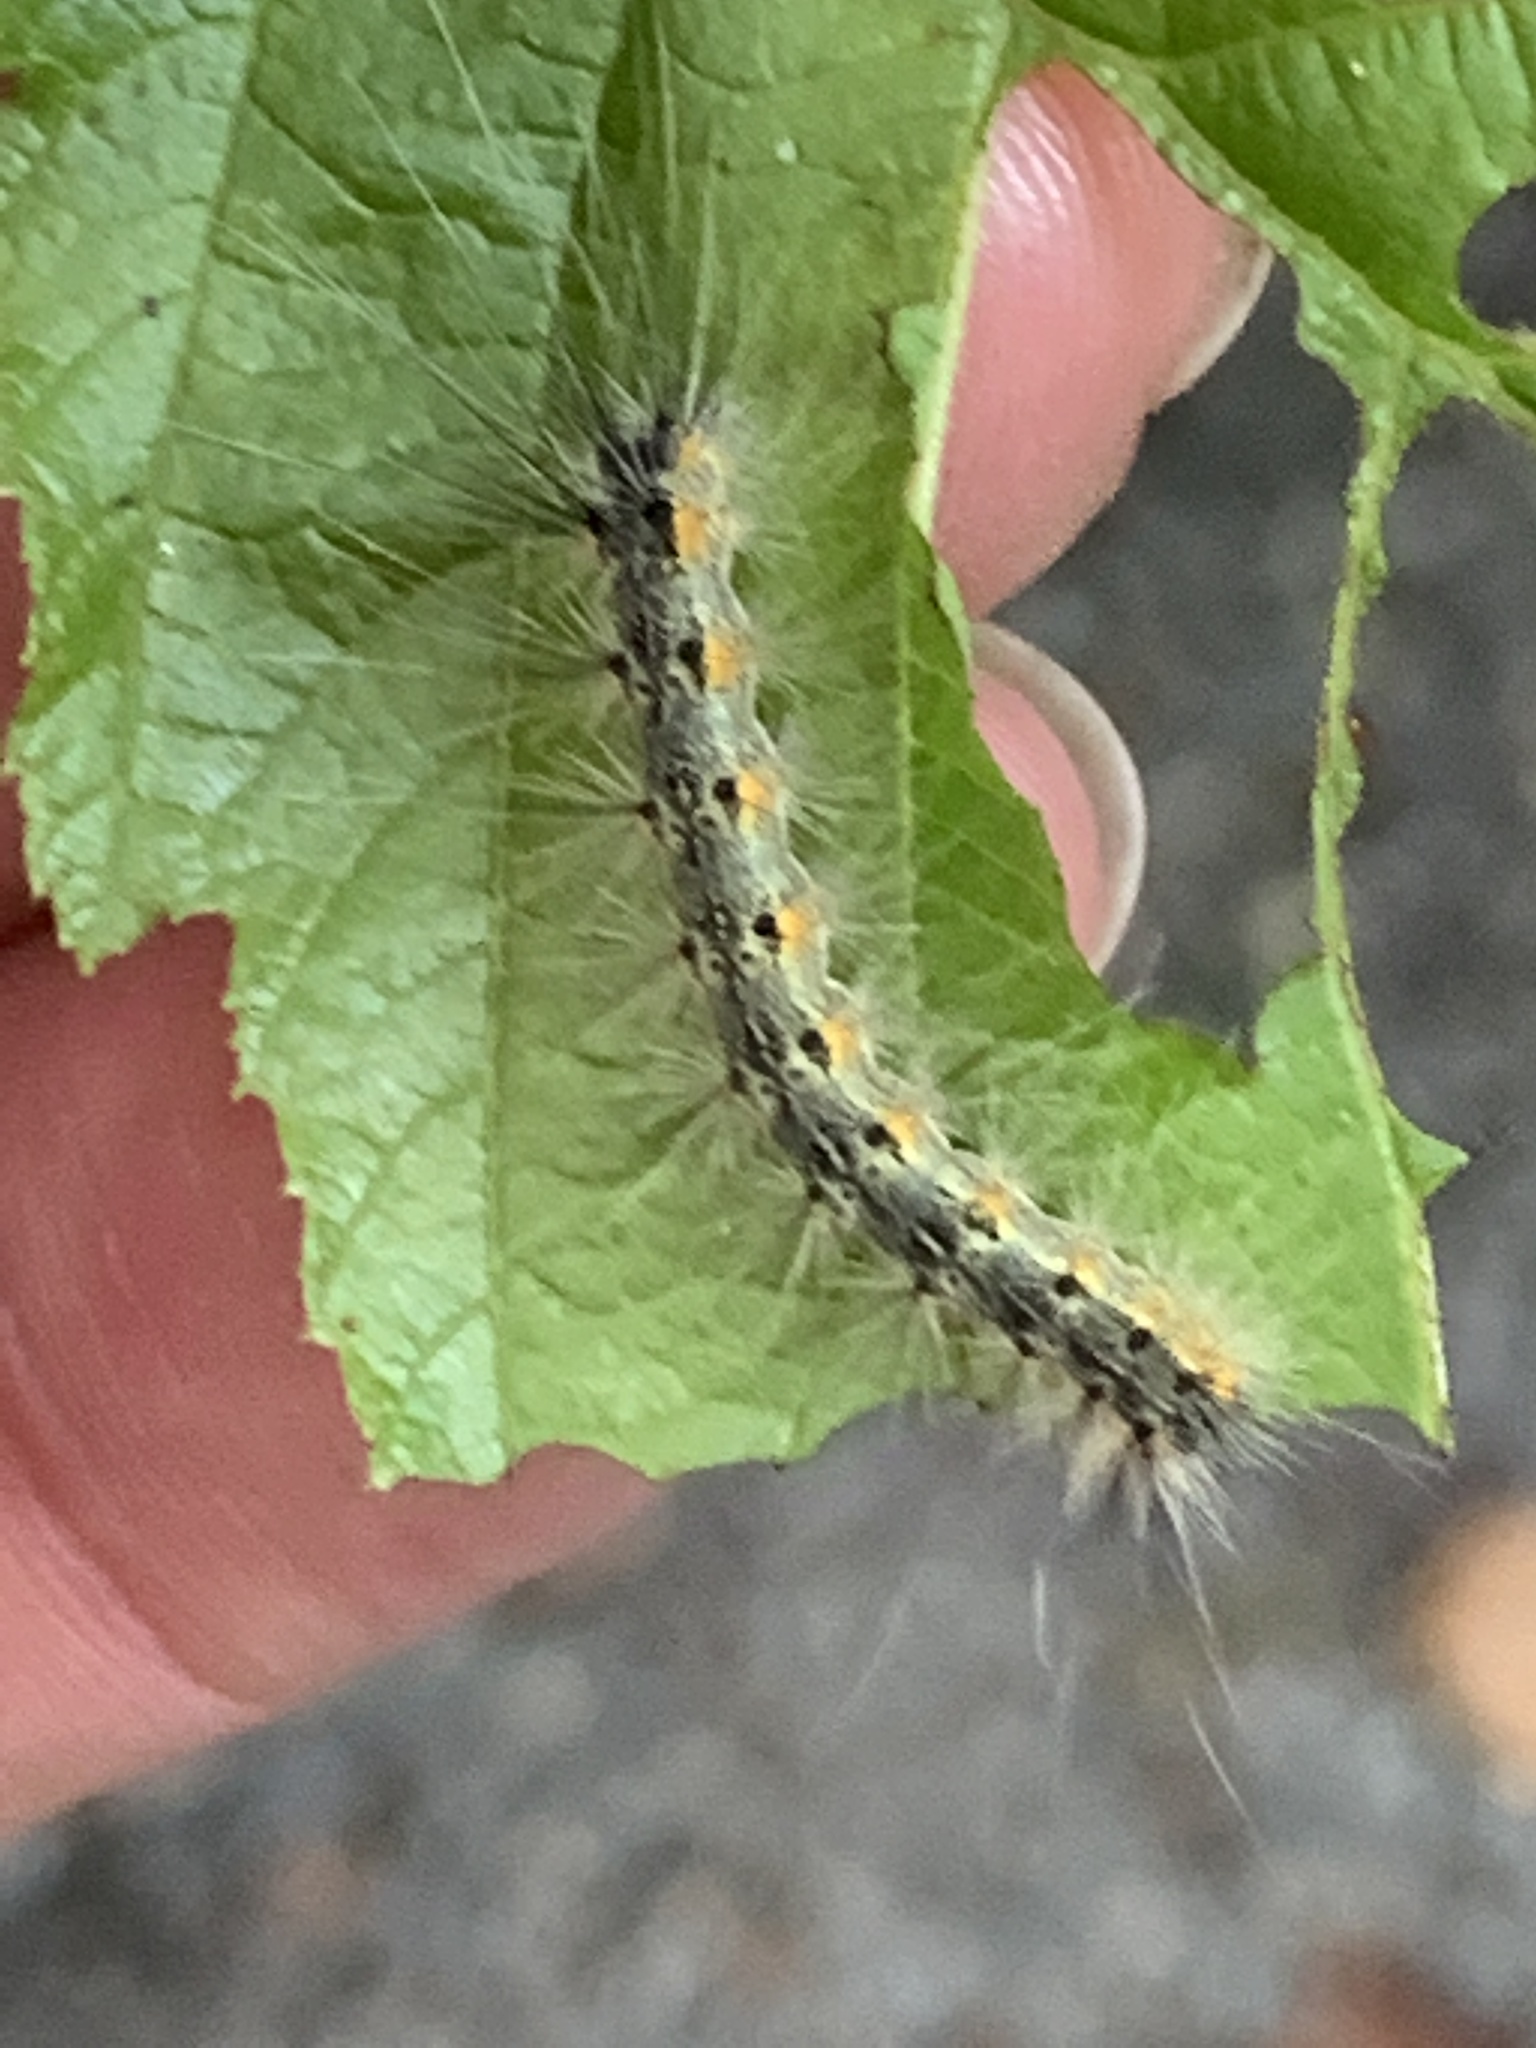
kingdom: Animalia
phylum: Arthropoda
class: Insecta
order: Lepidoptera
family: Erebidae
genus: Hyphantria
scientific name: Hyphantria cunea
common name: American white moth
